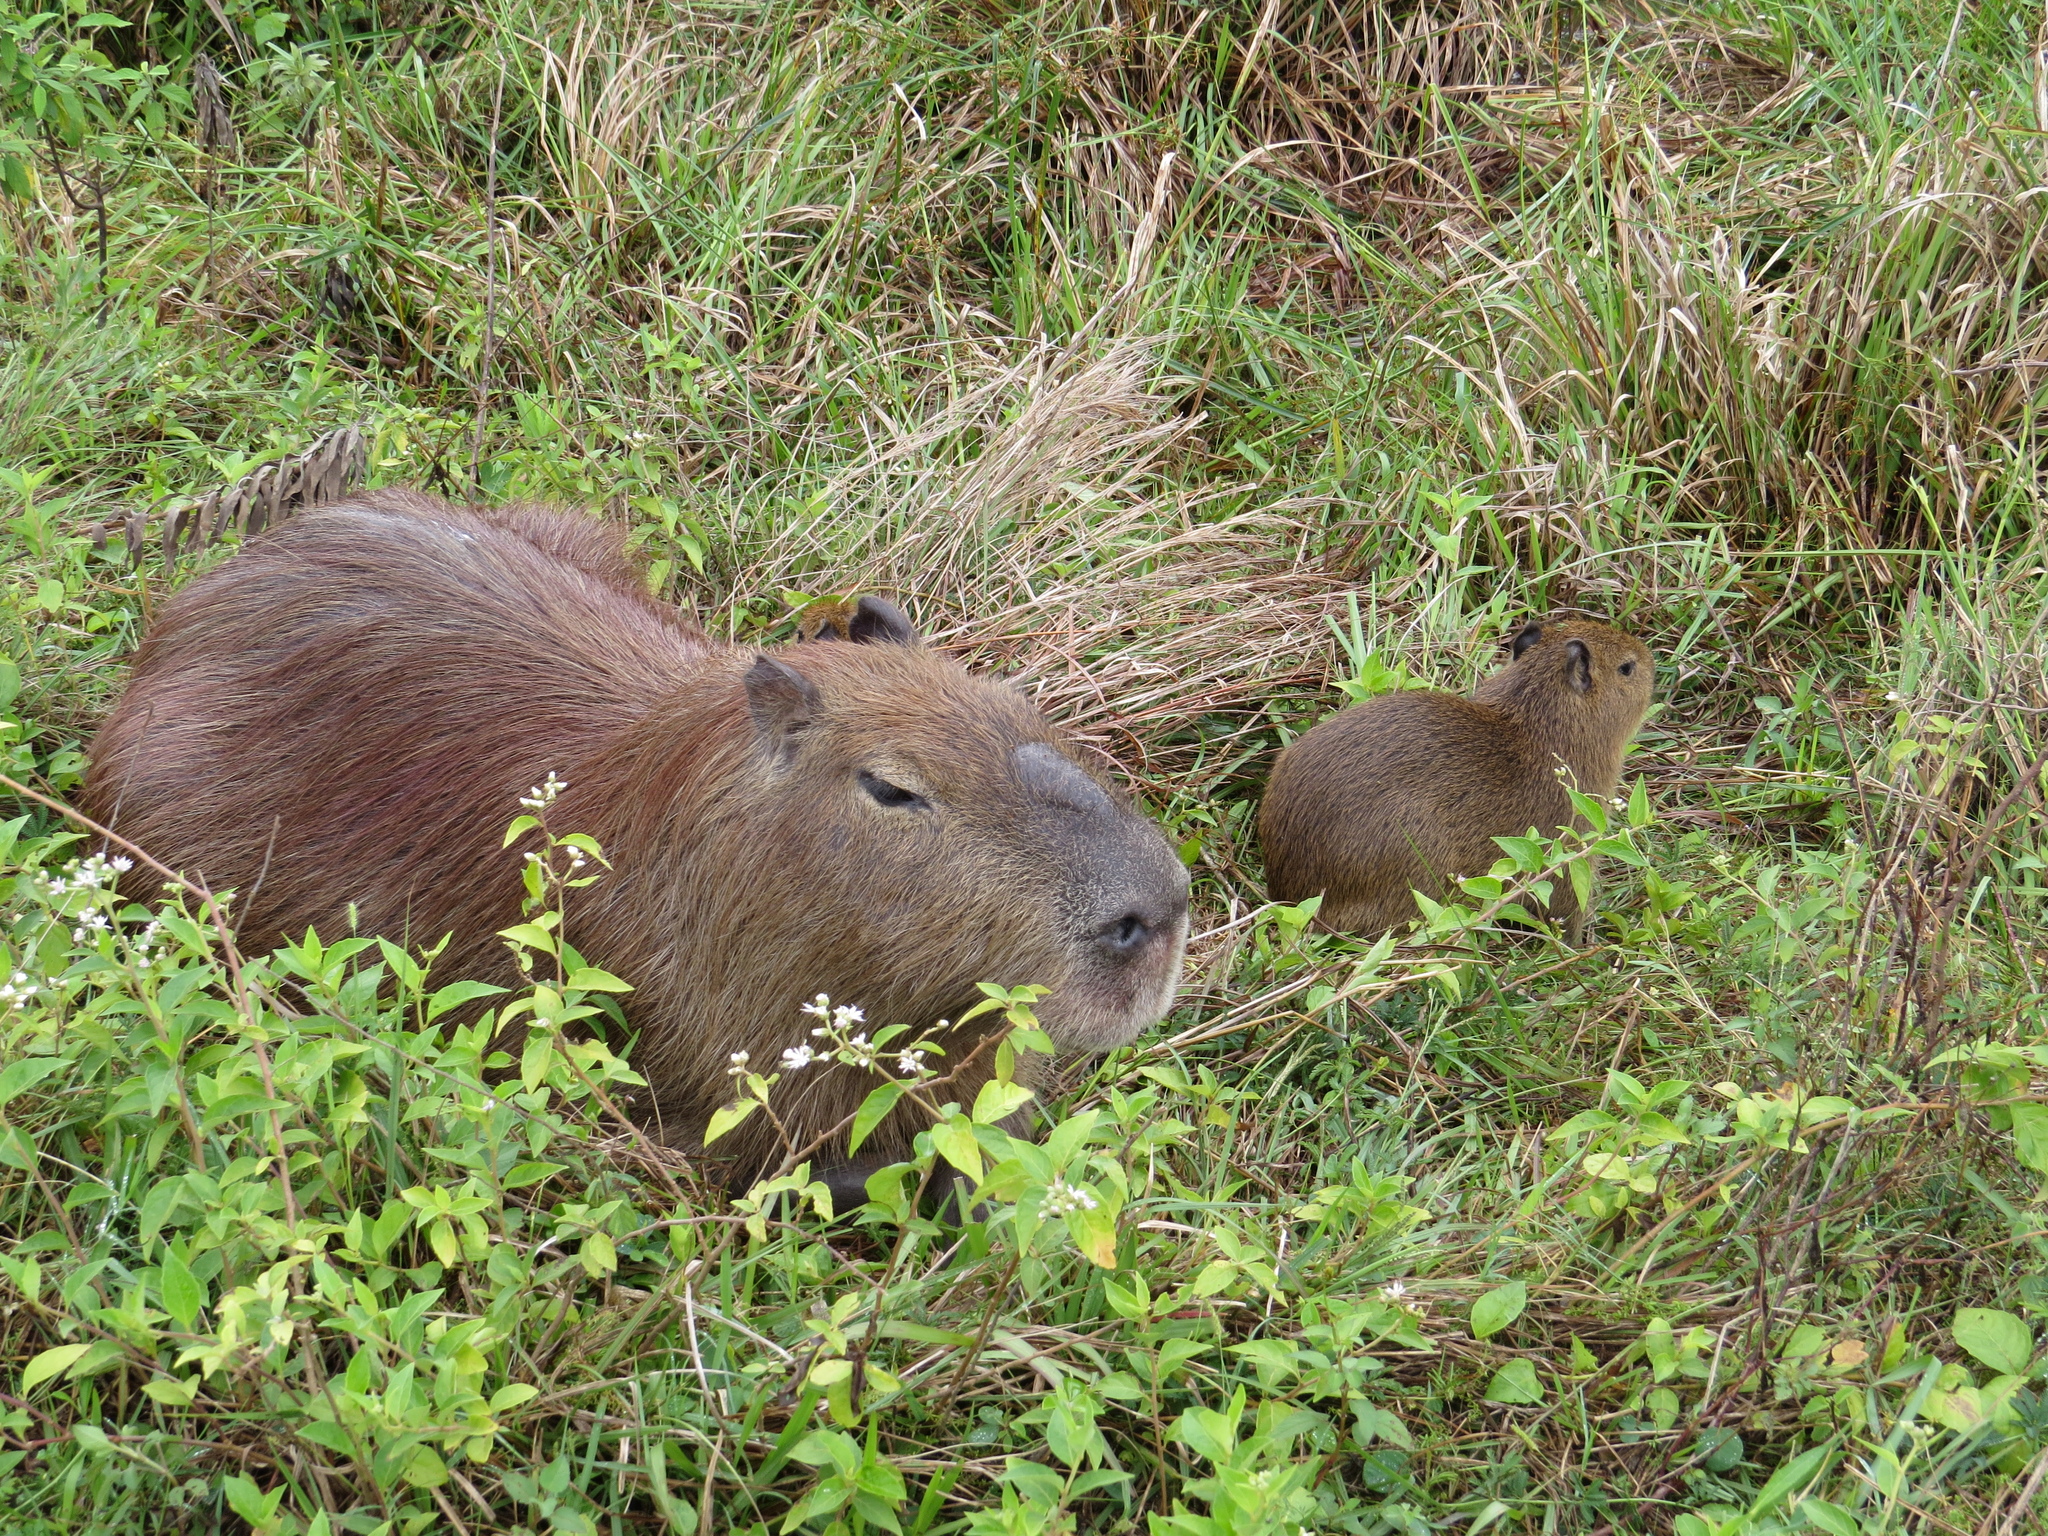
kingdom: Animalia
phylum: Chordata
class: Mammalia
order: Rodentia
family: Caviidae
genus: Hydrochoerus
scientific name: Hydrochoerus hydrochaeris
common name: Capybara
